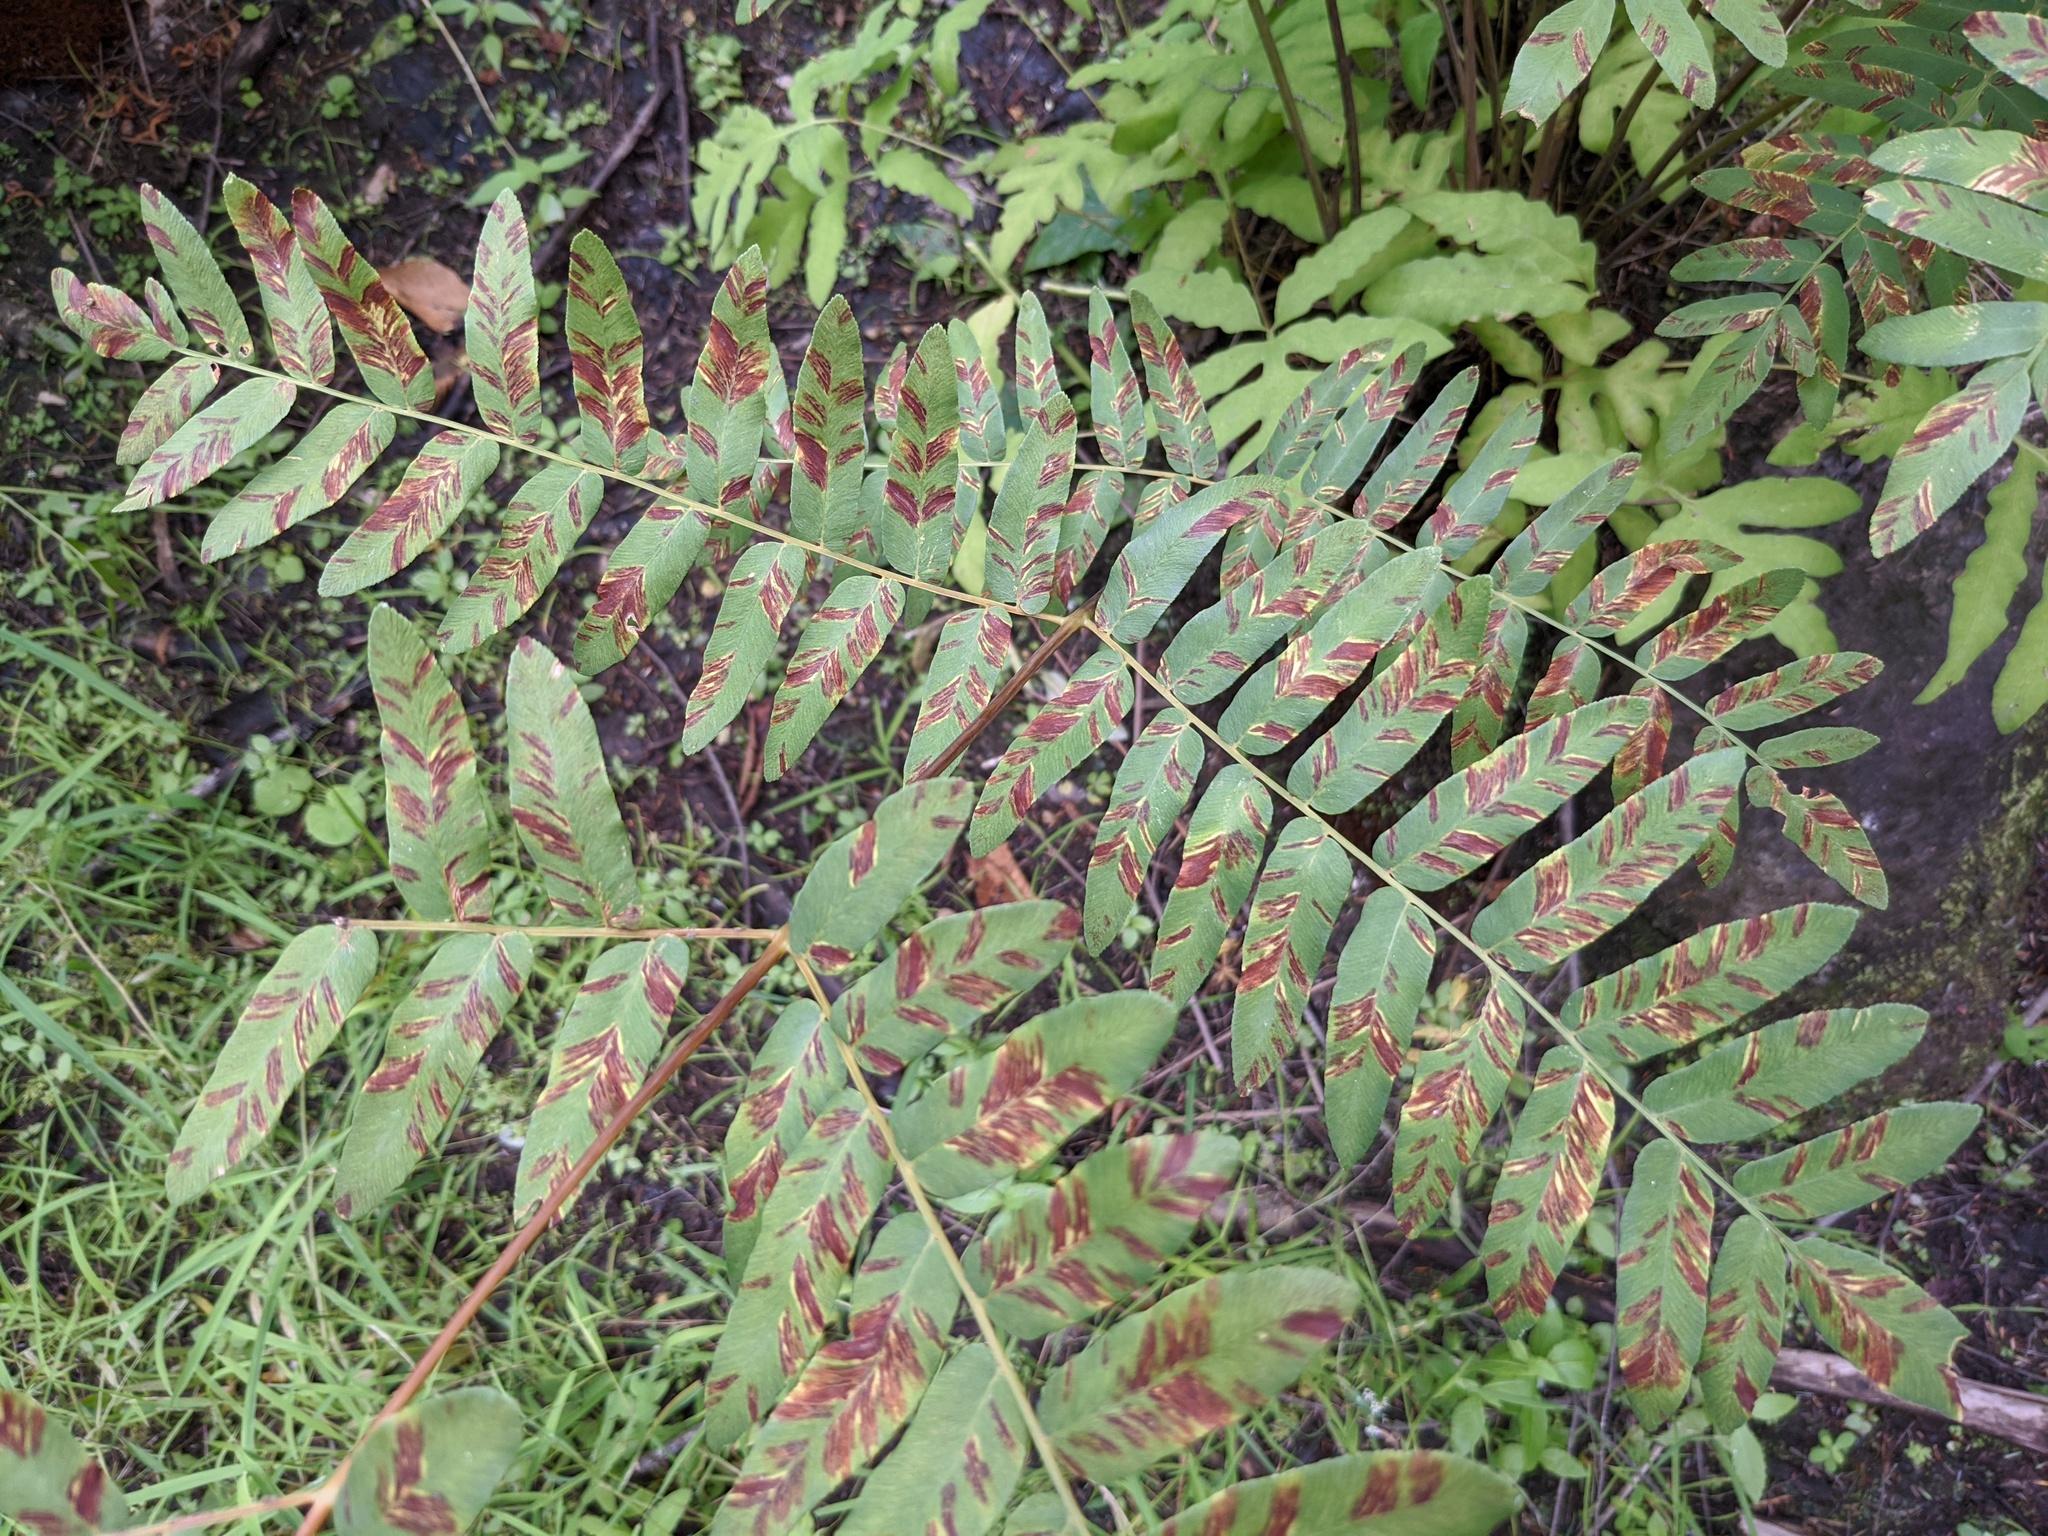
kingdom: Plantae
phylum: Tracheophyta
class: Polypodiopsida
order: Osmundales
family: Osmundaceae
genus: Osmunda
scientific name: Osmunda spectabilis
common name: American royal fern
